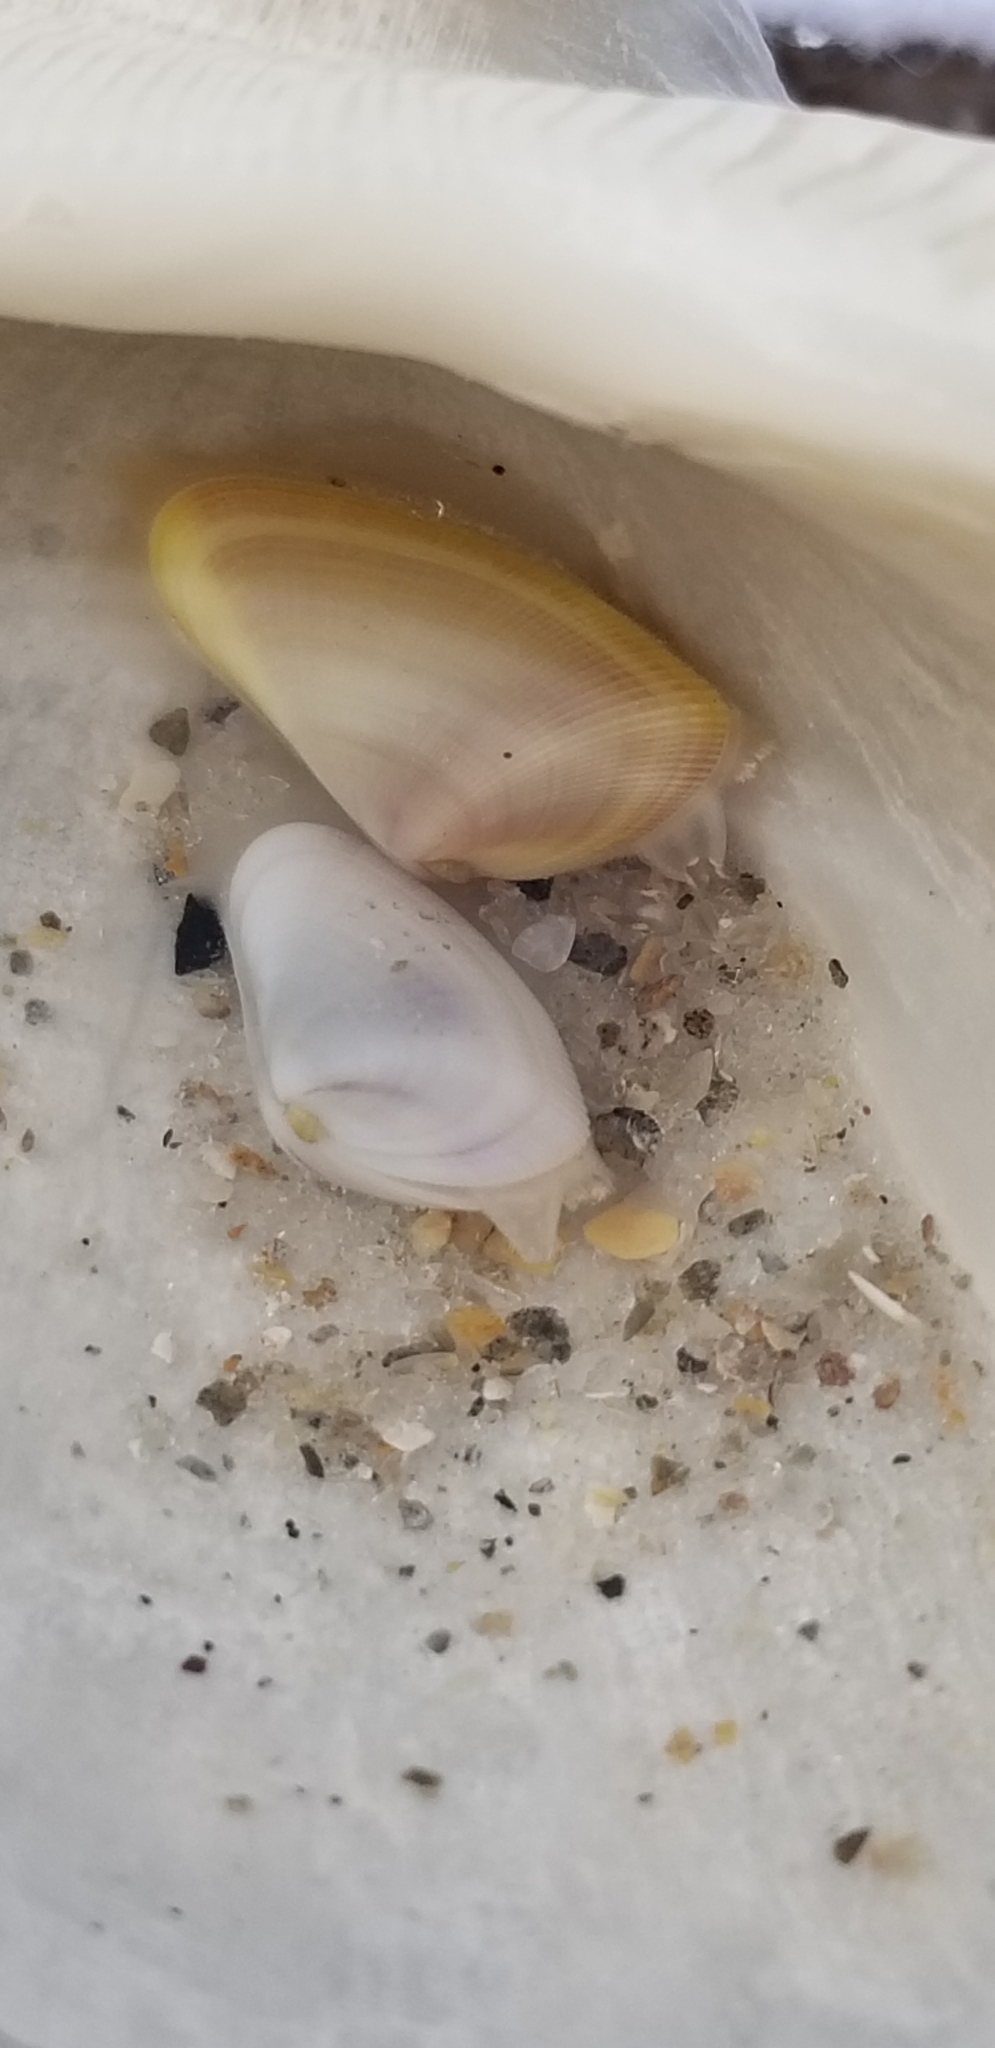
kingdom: Animalia
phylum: Mollusca
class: Bivalvia
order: Cardiida
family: Donacidae
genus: Donax
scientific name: Donax variabilis
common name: Butterfly shell
